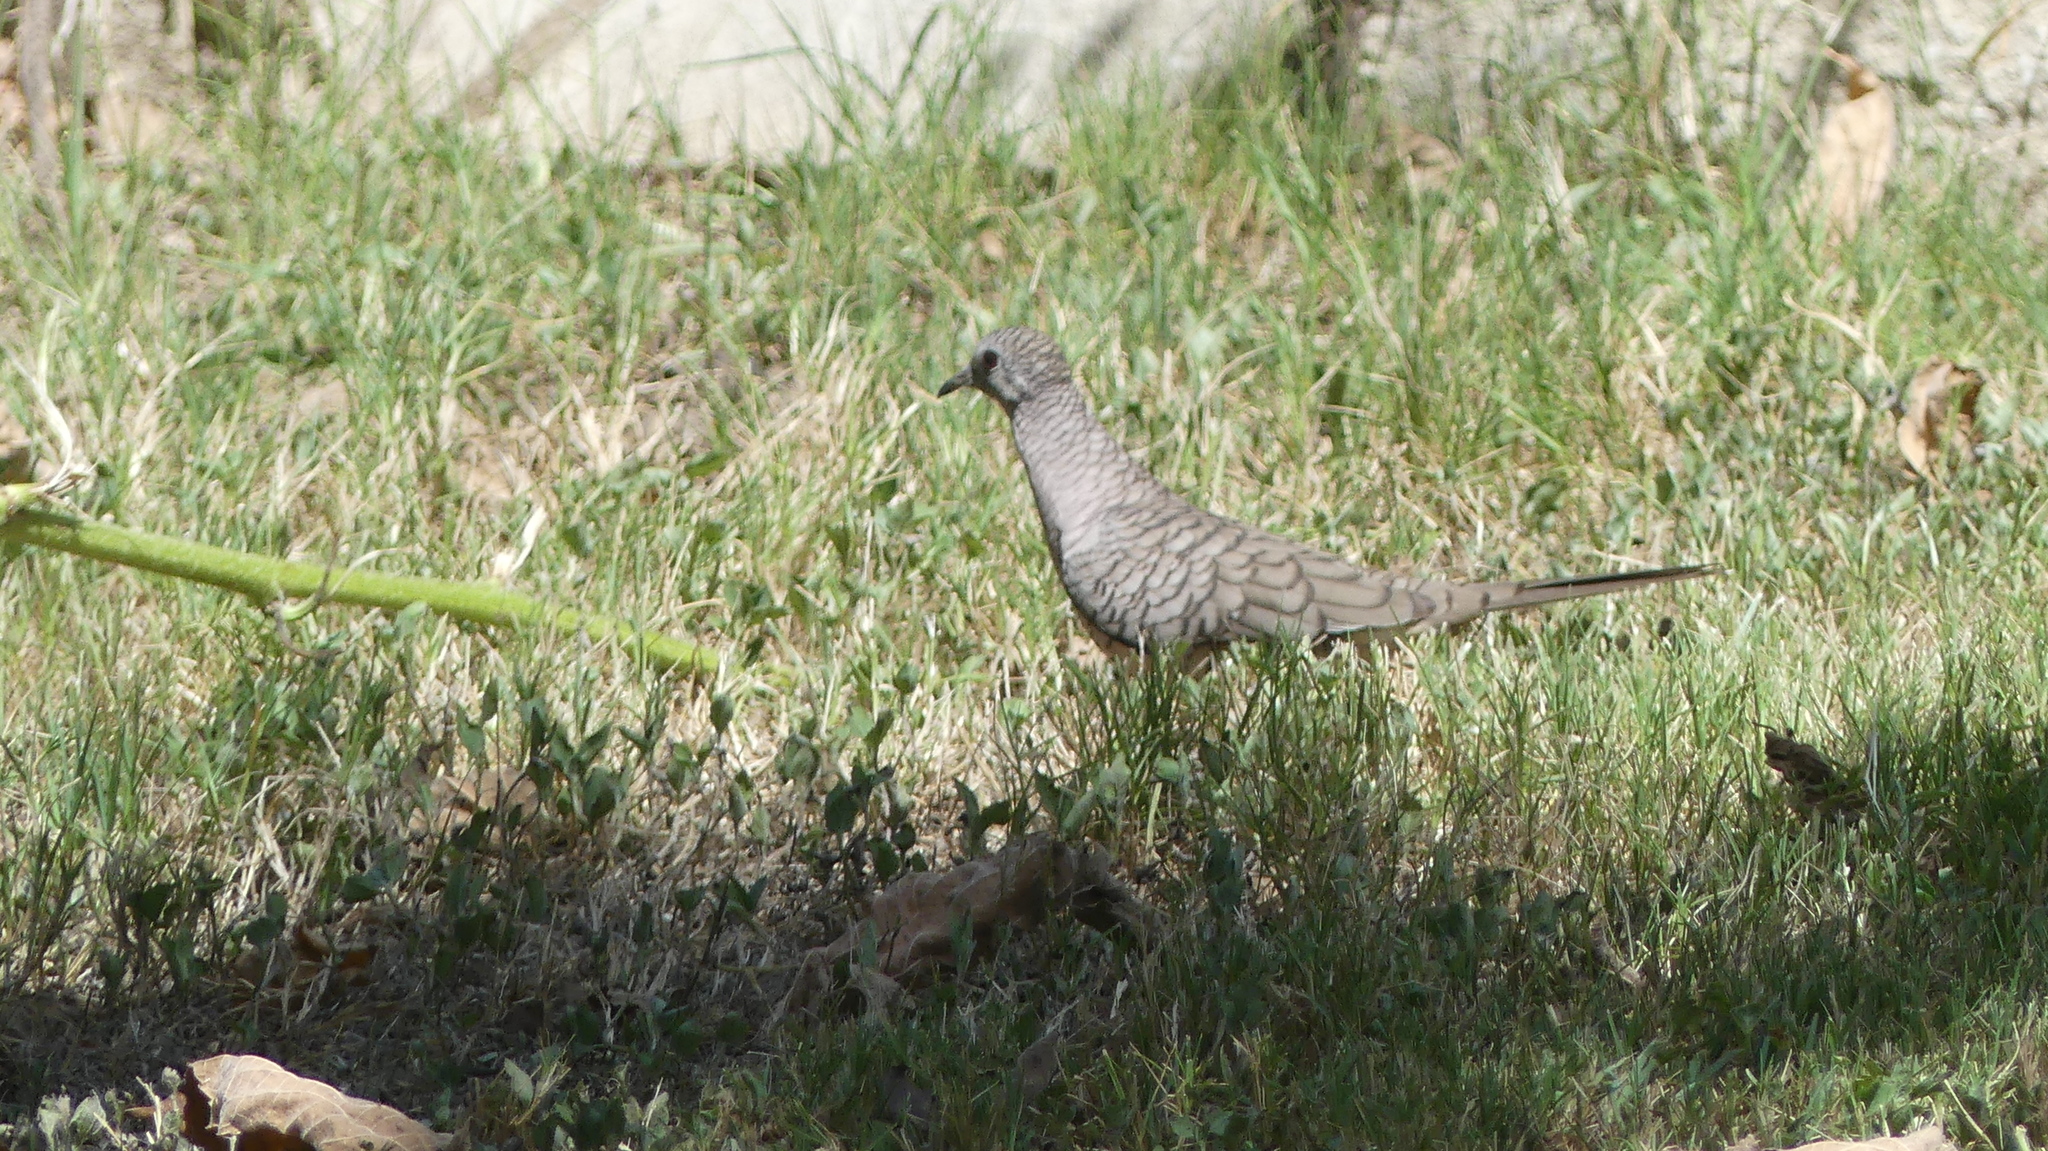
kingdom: Animalia
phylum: Chordata
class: Aves
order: Columbiformes
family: Columbidae
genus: Columbina
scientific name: Columbina inca
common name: Inca dove
